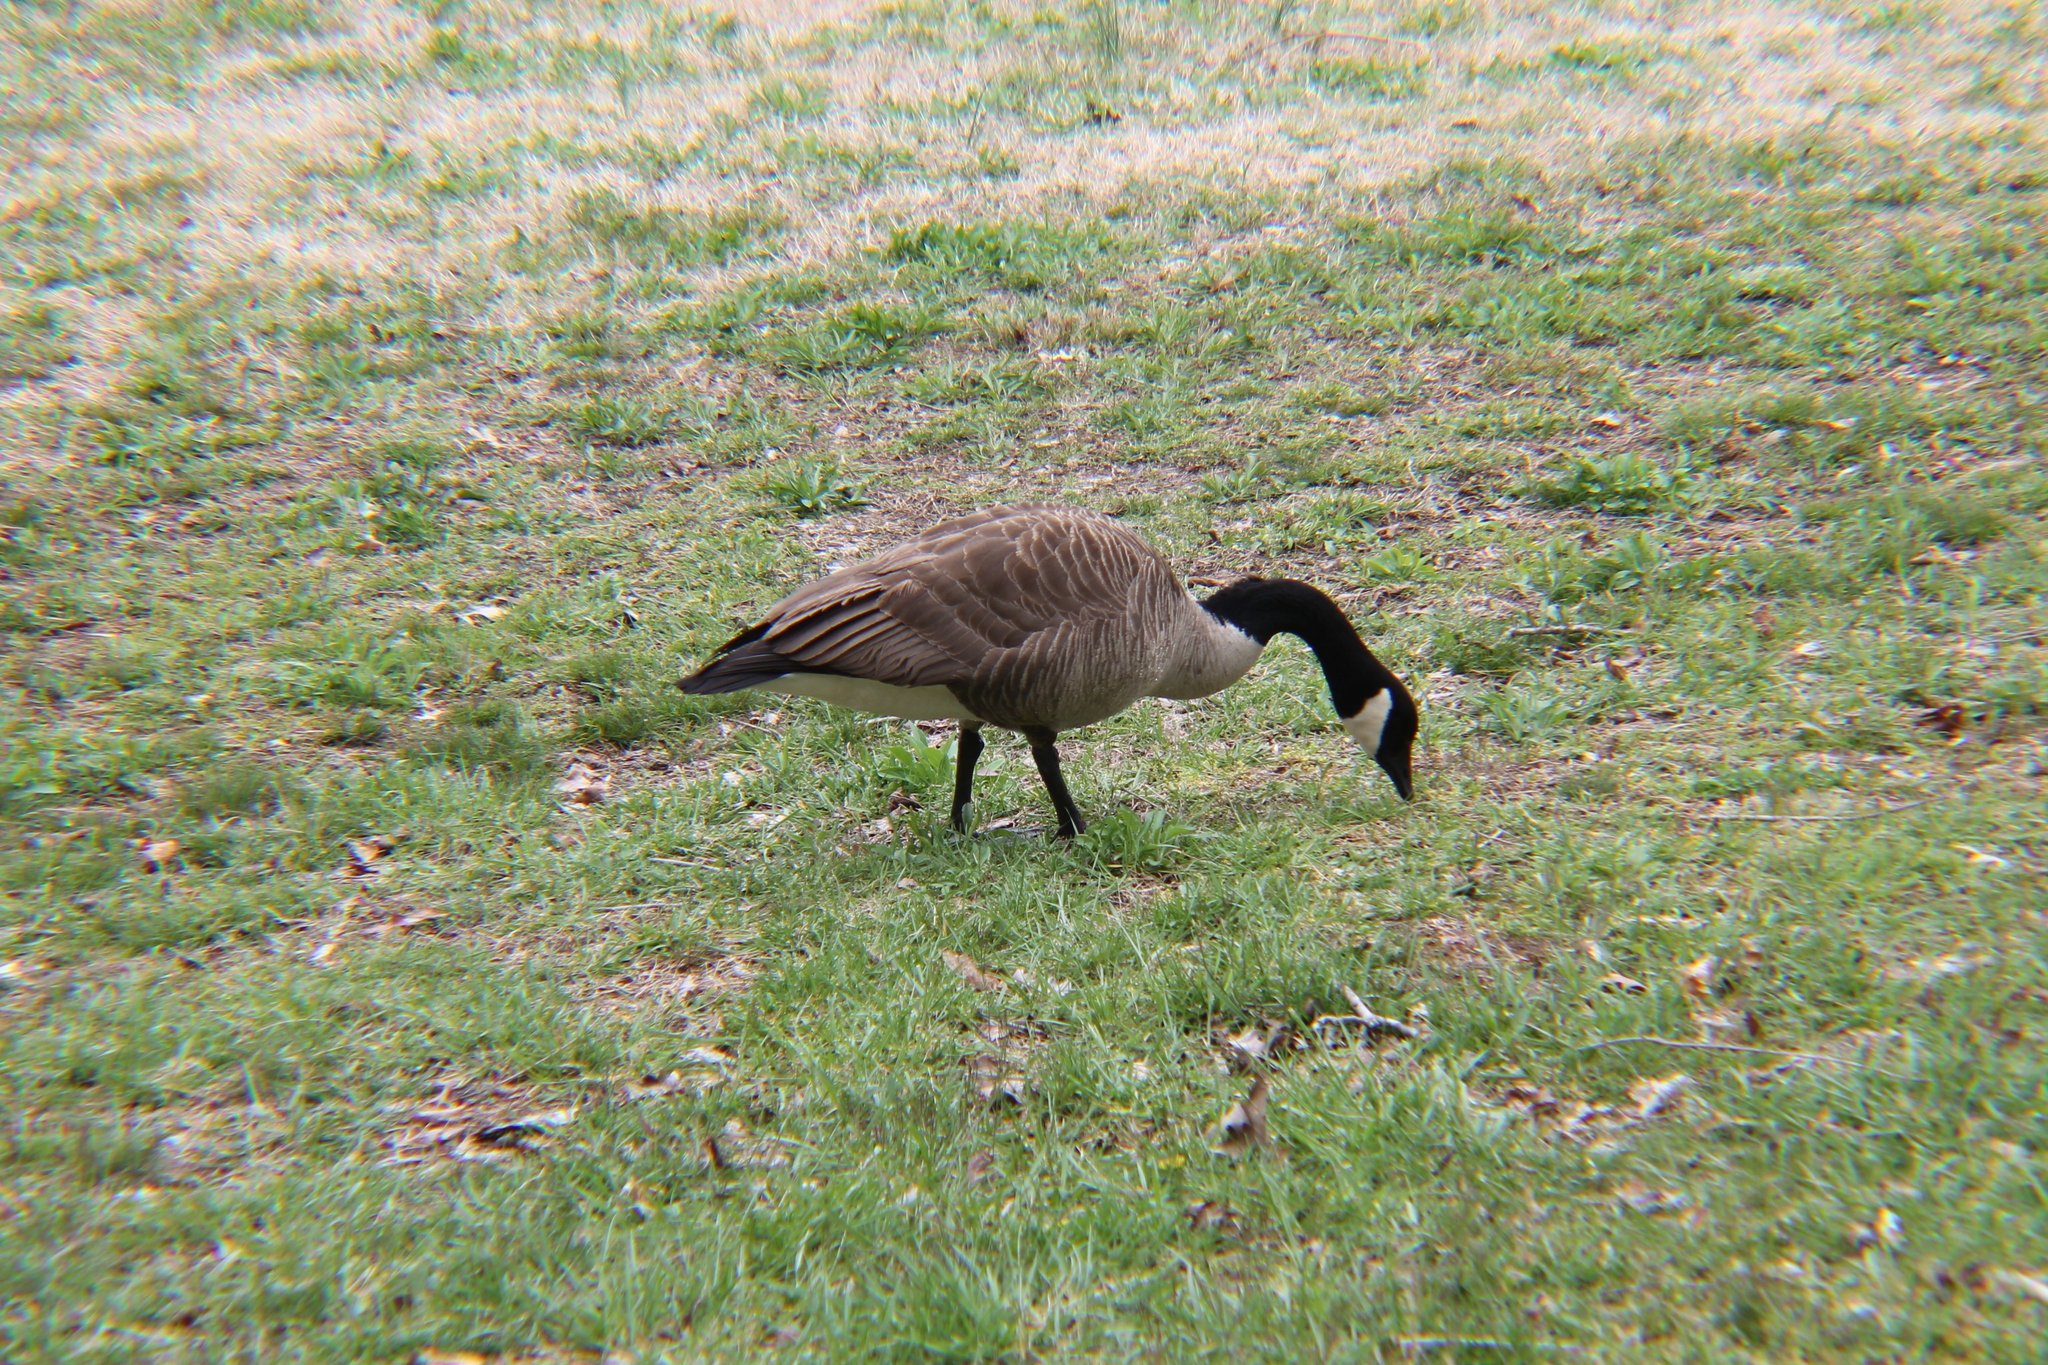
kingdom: Animalia
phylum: Chordata
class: Aves
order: Anseriformes
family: Anatidae
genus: Branta
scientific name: Branta canadensis
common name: Canada goose
